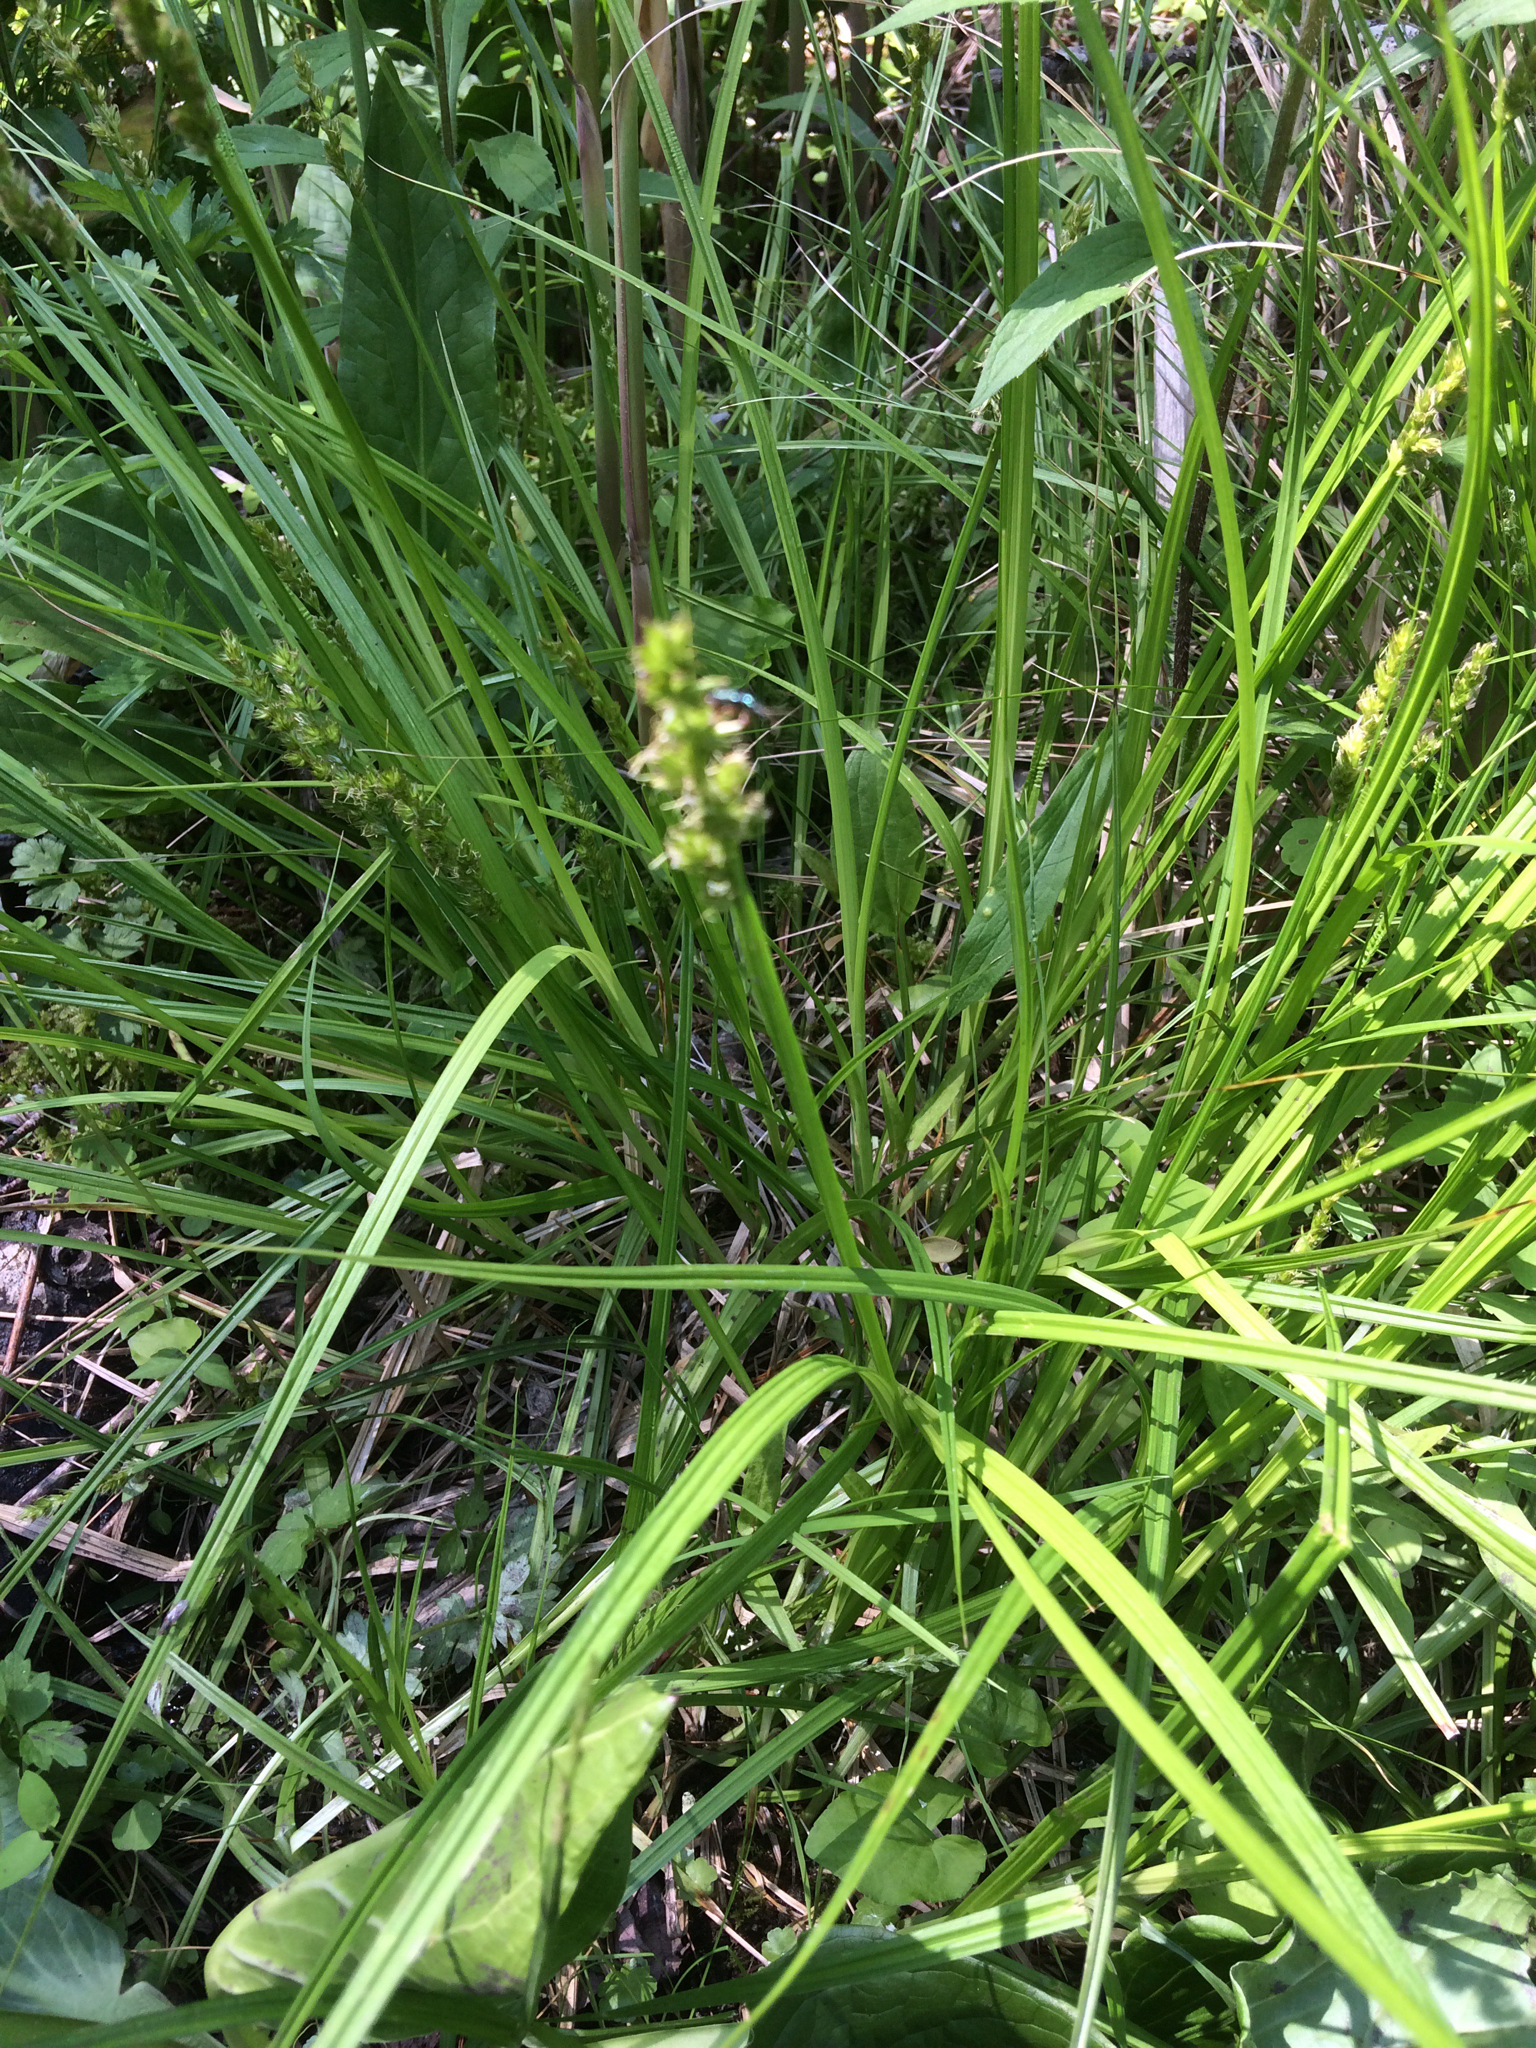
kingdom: Plantae
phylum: Tracheophyta
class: Liliopsida
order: Poales
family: Cyperaceae
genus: Carex
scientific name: Carex stipata
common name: Awl-fruited sedge
